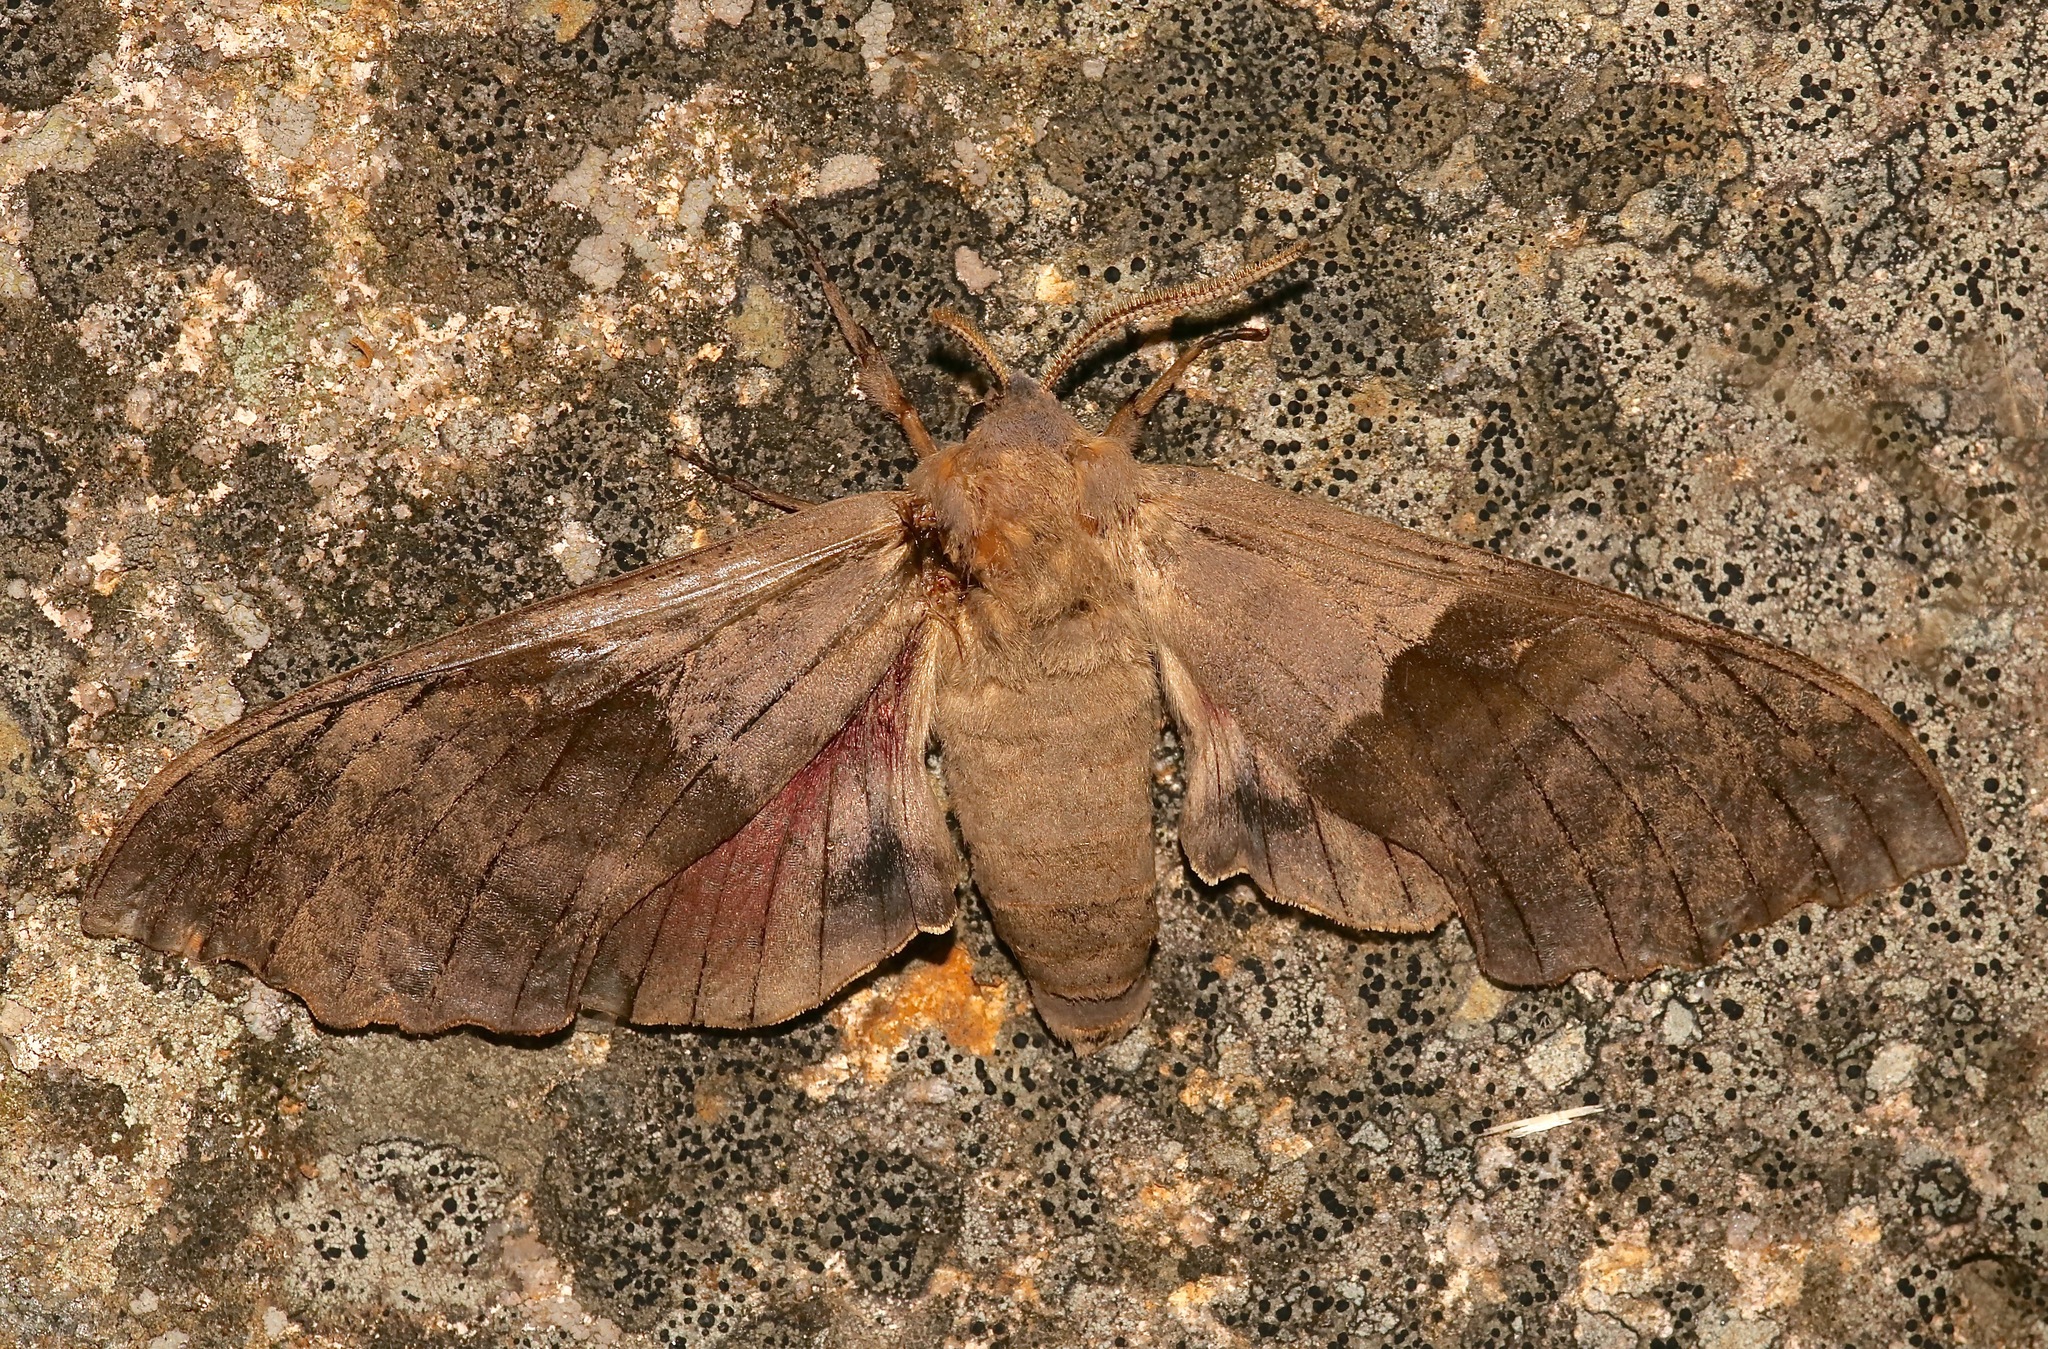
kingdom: Animalia
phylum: Arthropoda
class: Insecta
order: Lepidoptera
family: Sphingidae
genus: Pachysphinx
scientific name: Pachysphinx modesta
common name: Big poplar sphinx
